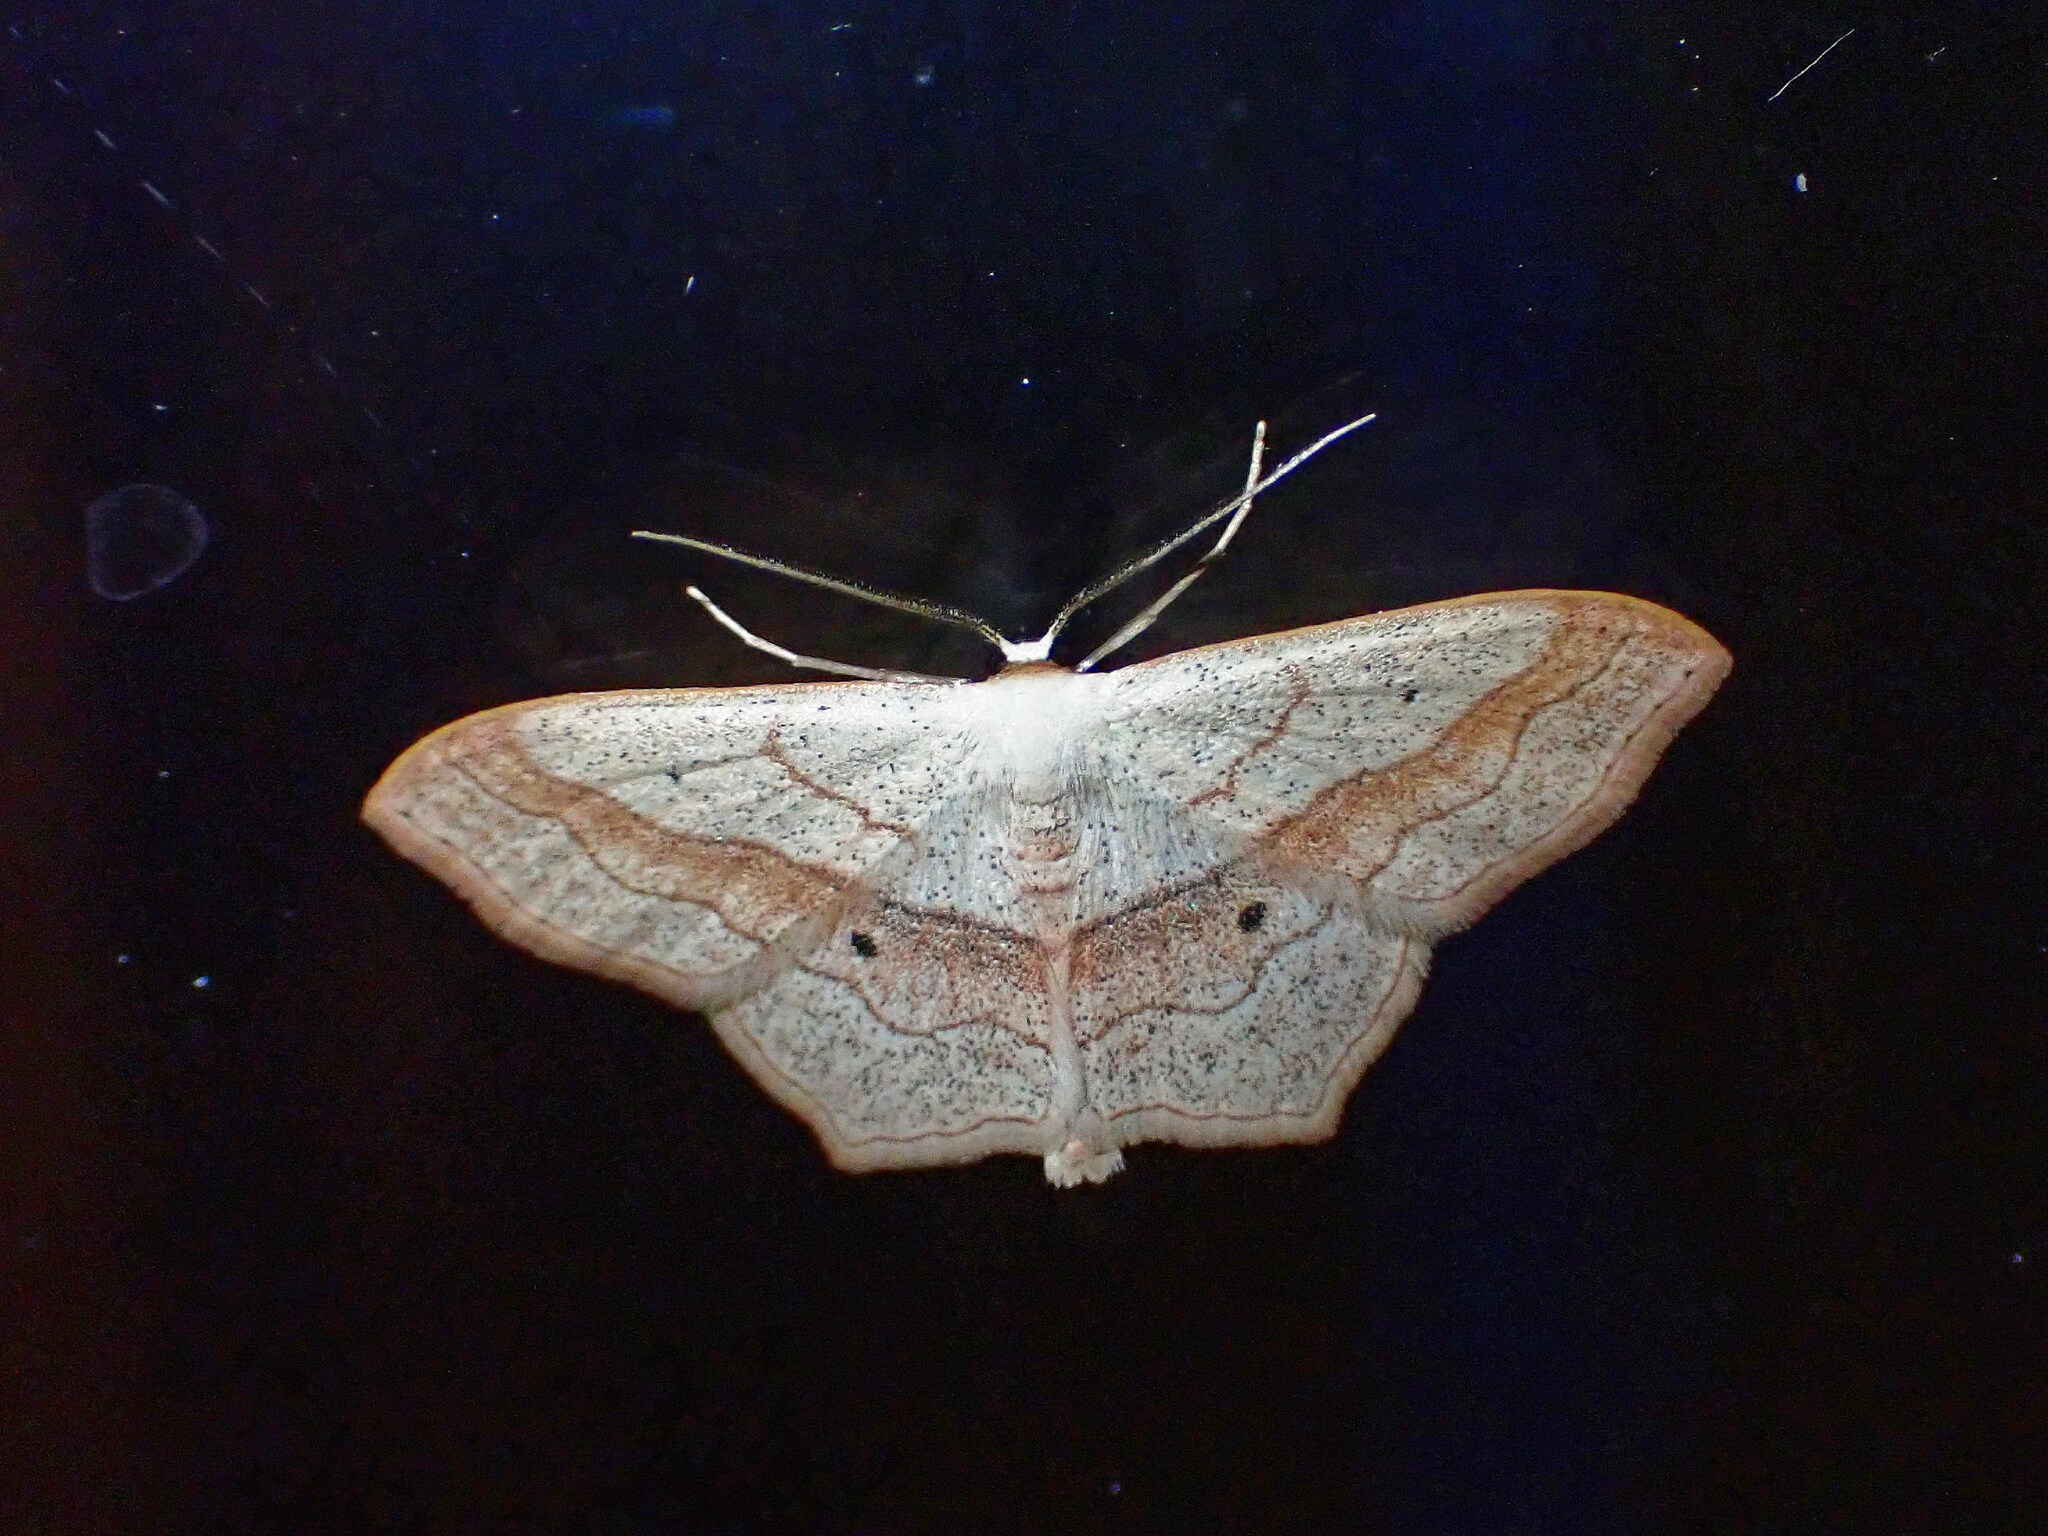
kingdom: Animalia
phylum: Arthropoda
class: Insecta
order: Lepidoptera
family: Geometridae
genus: Scopula
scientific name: Scopula imitaria
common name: Small blood-vein
